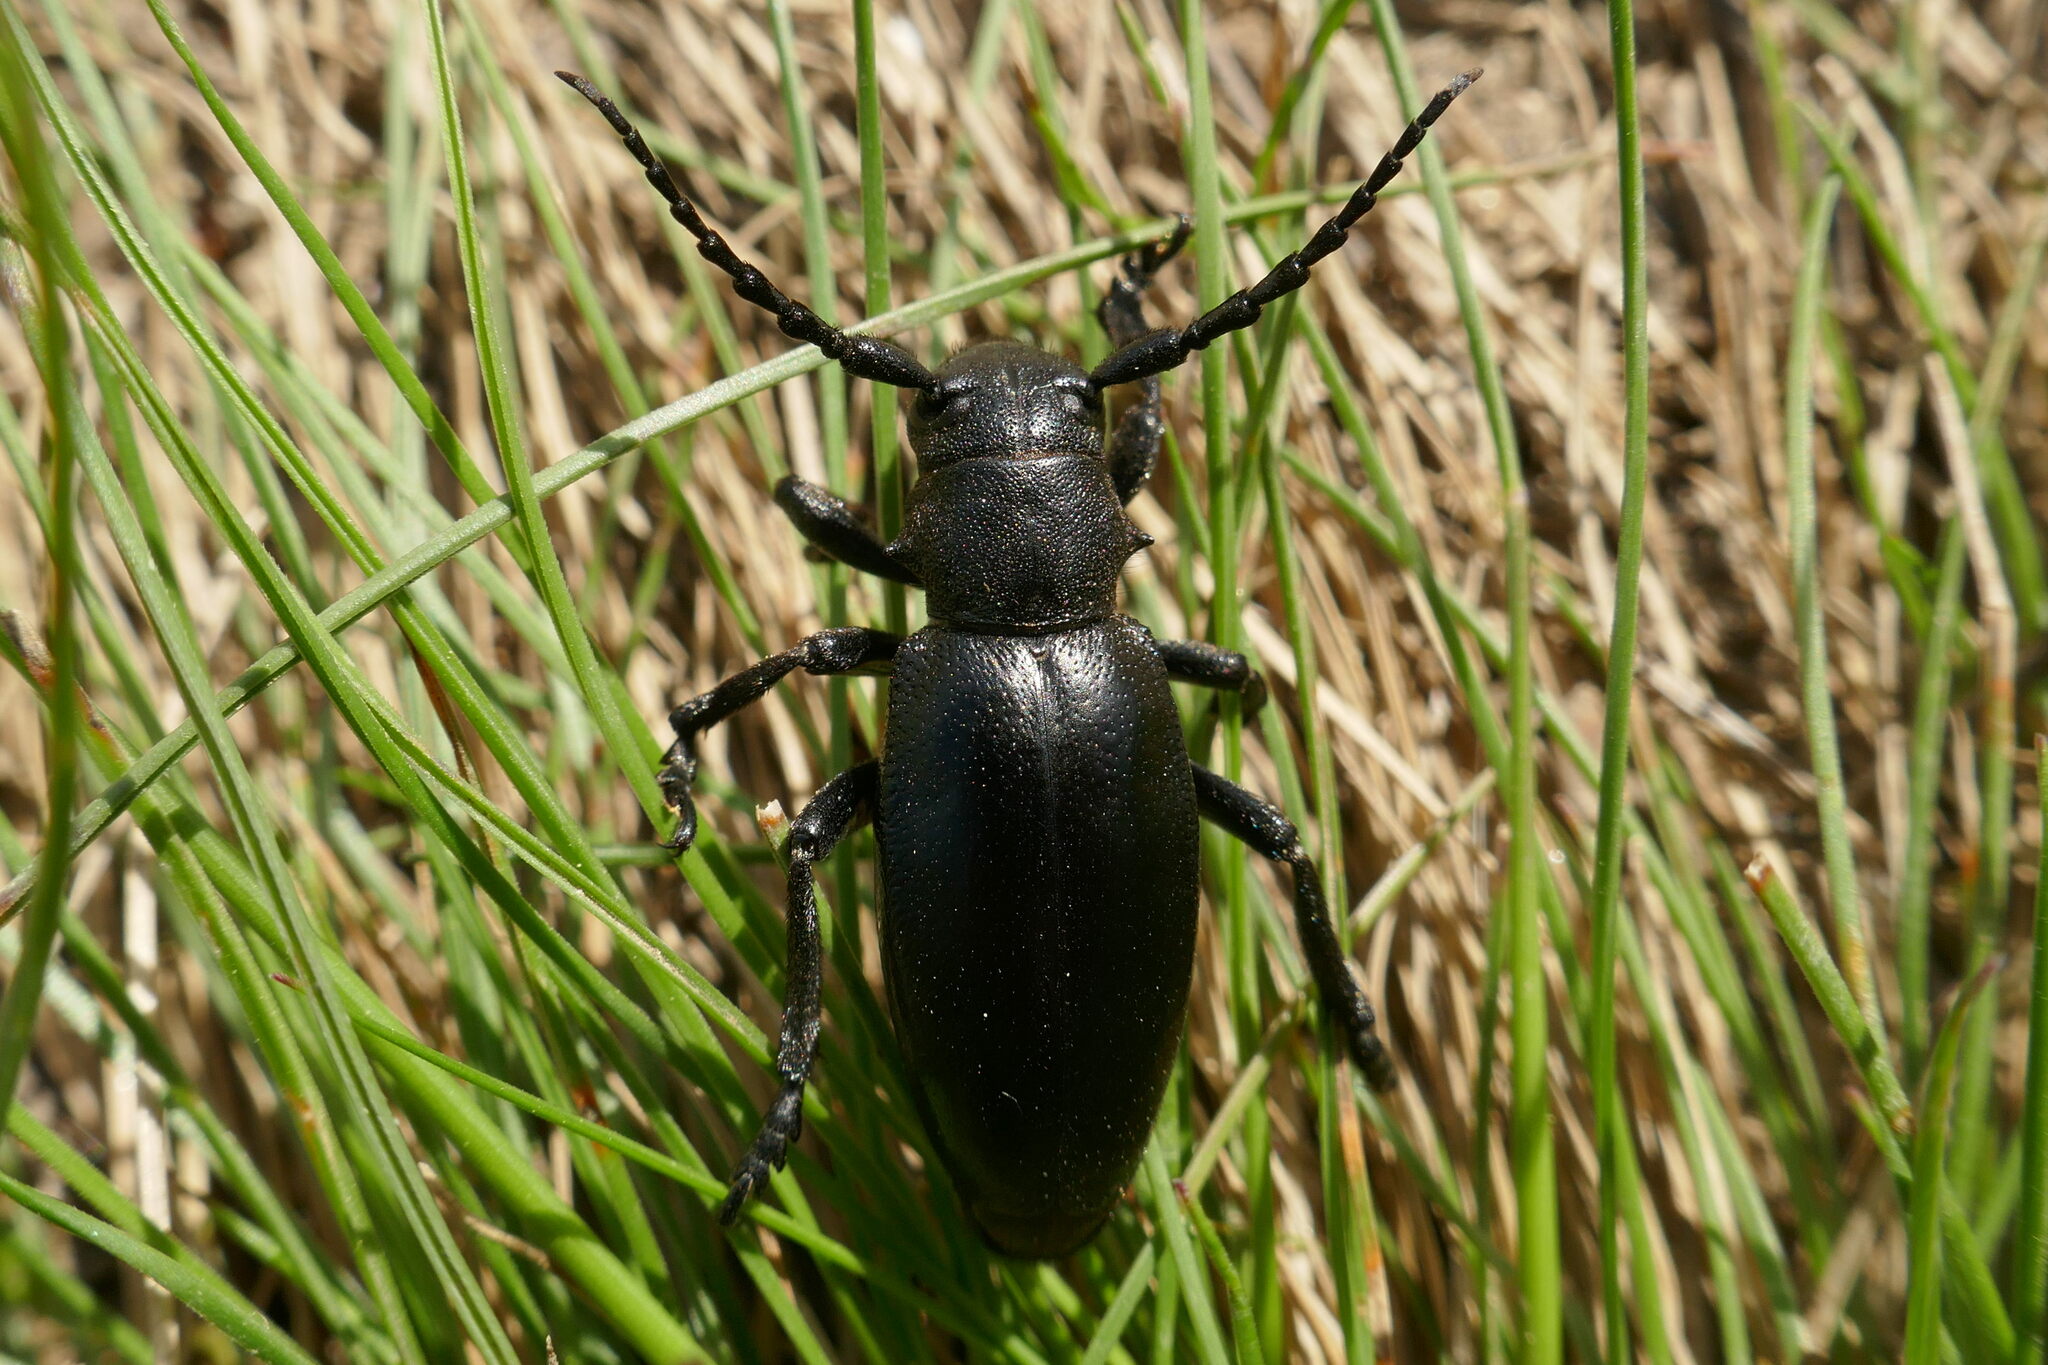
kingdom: Animalia
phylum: Arthropoda
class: Insecta
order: Coleoptera
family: Cerambycidae
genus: Dorcadion
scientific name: Dorcadion aethiops
